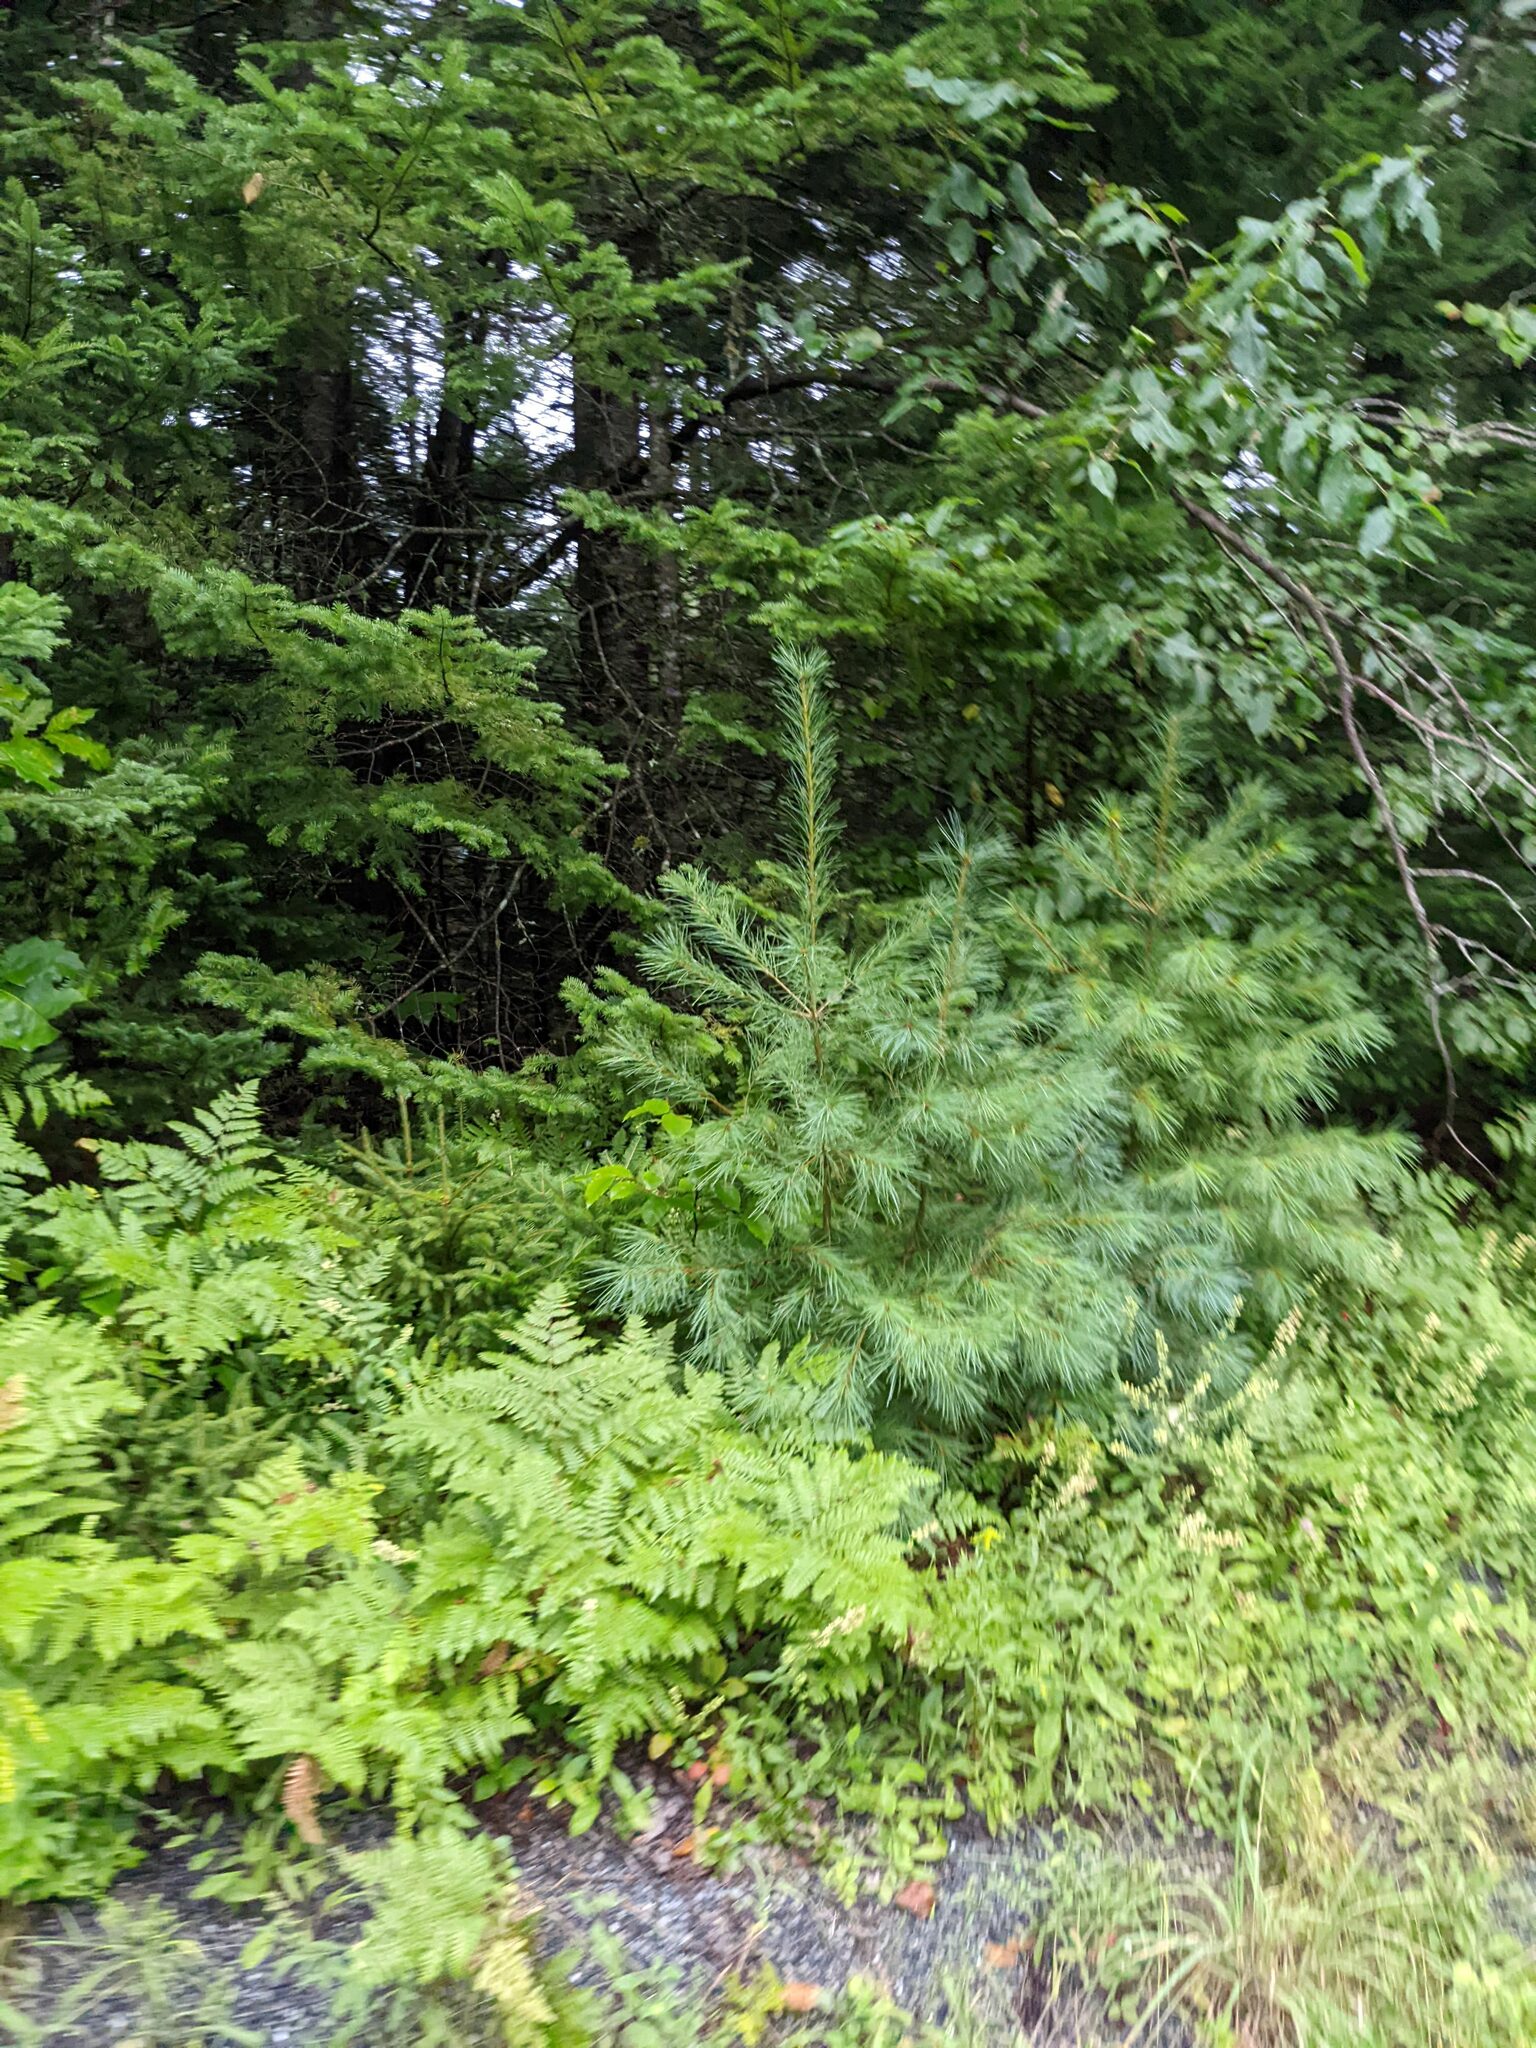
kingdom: Plantae
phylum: Tracheophyta
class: Pinopsida
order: Pinales
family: Pinaceae
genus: Pinus
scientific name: Pinus strobus
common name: Weymouth pine
